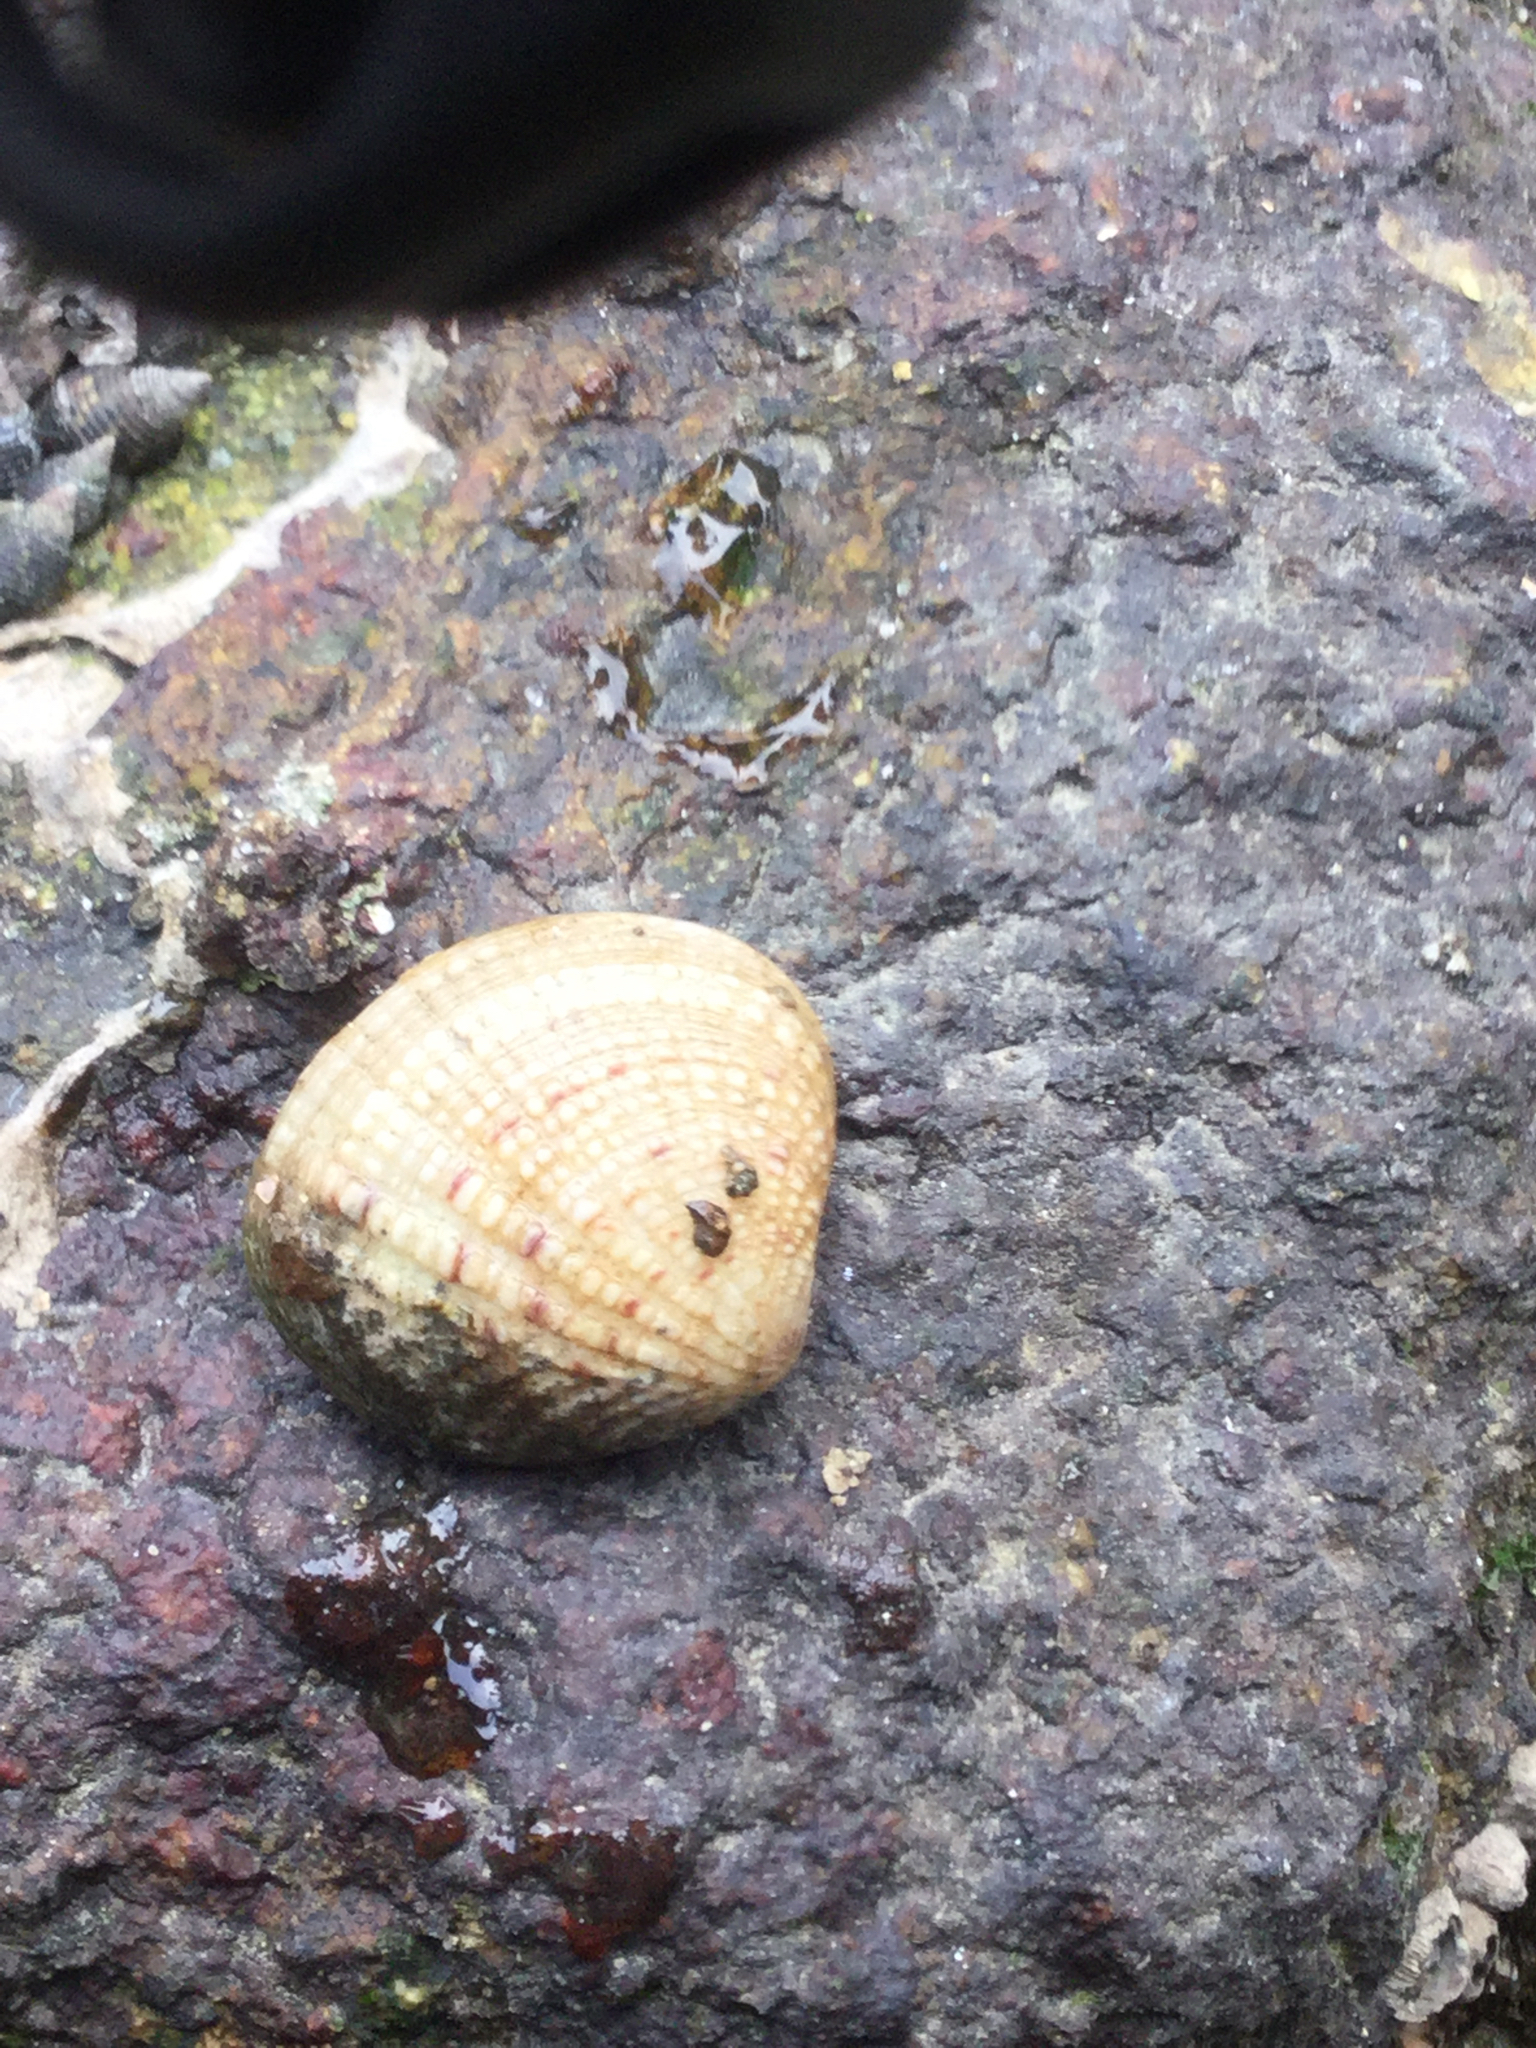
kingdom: Animalia
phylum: Mollusca
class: Bivalvia
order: Venerida
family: Veneridae
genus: Gafrarium
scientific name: Gafrarium pectinatum
